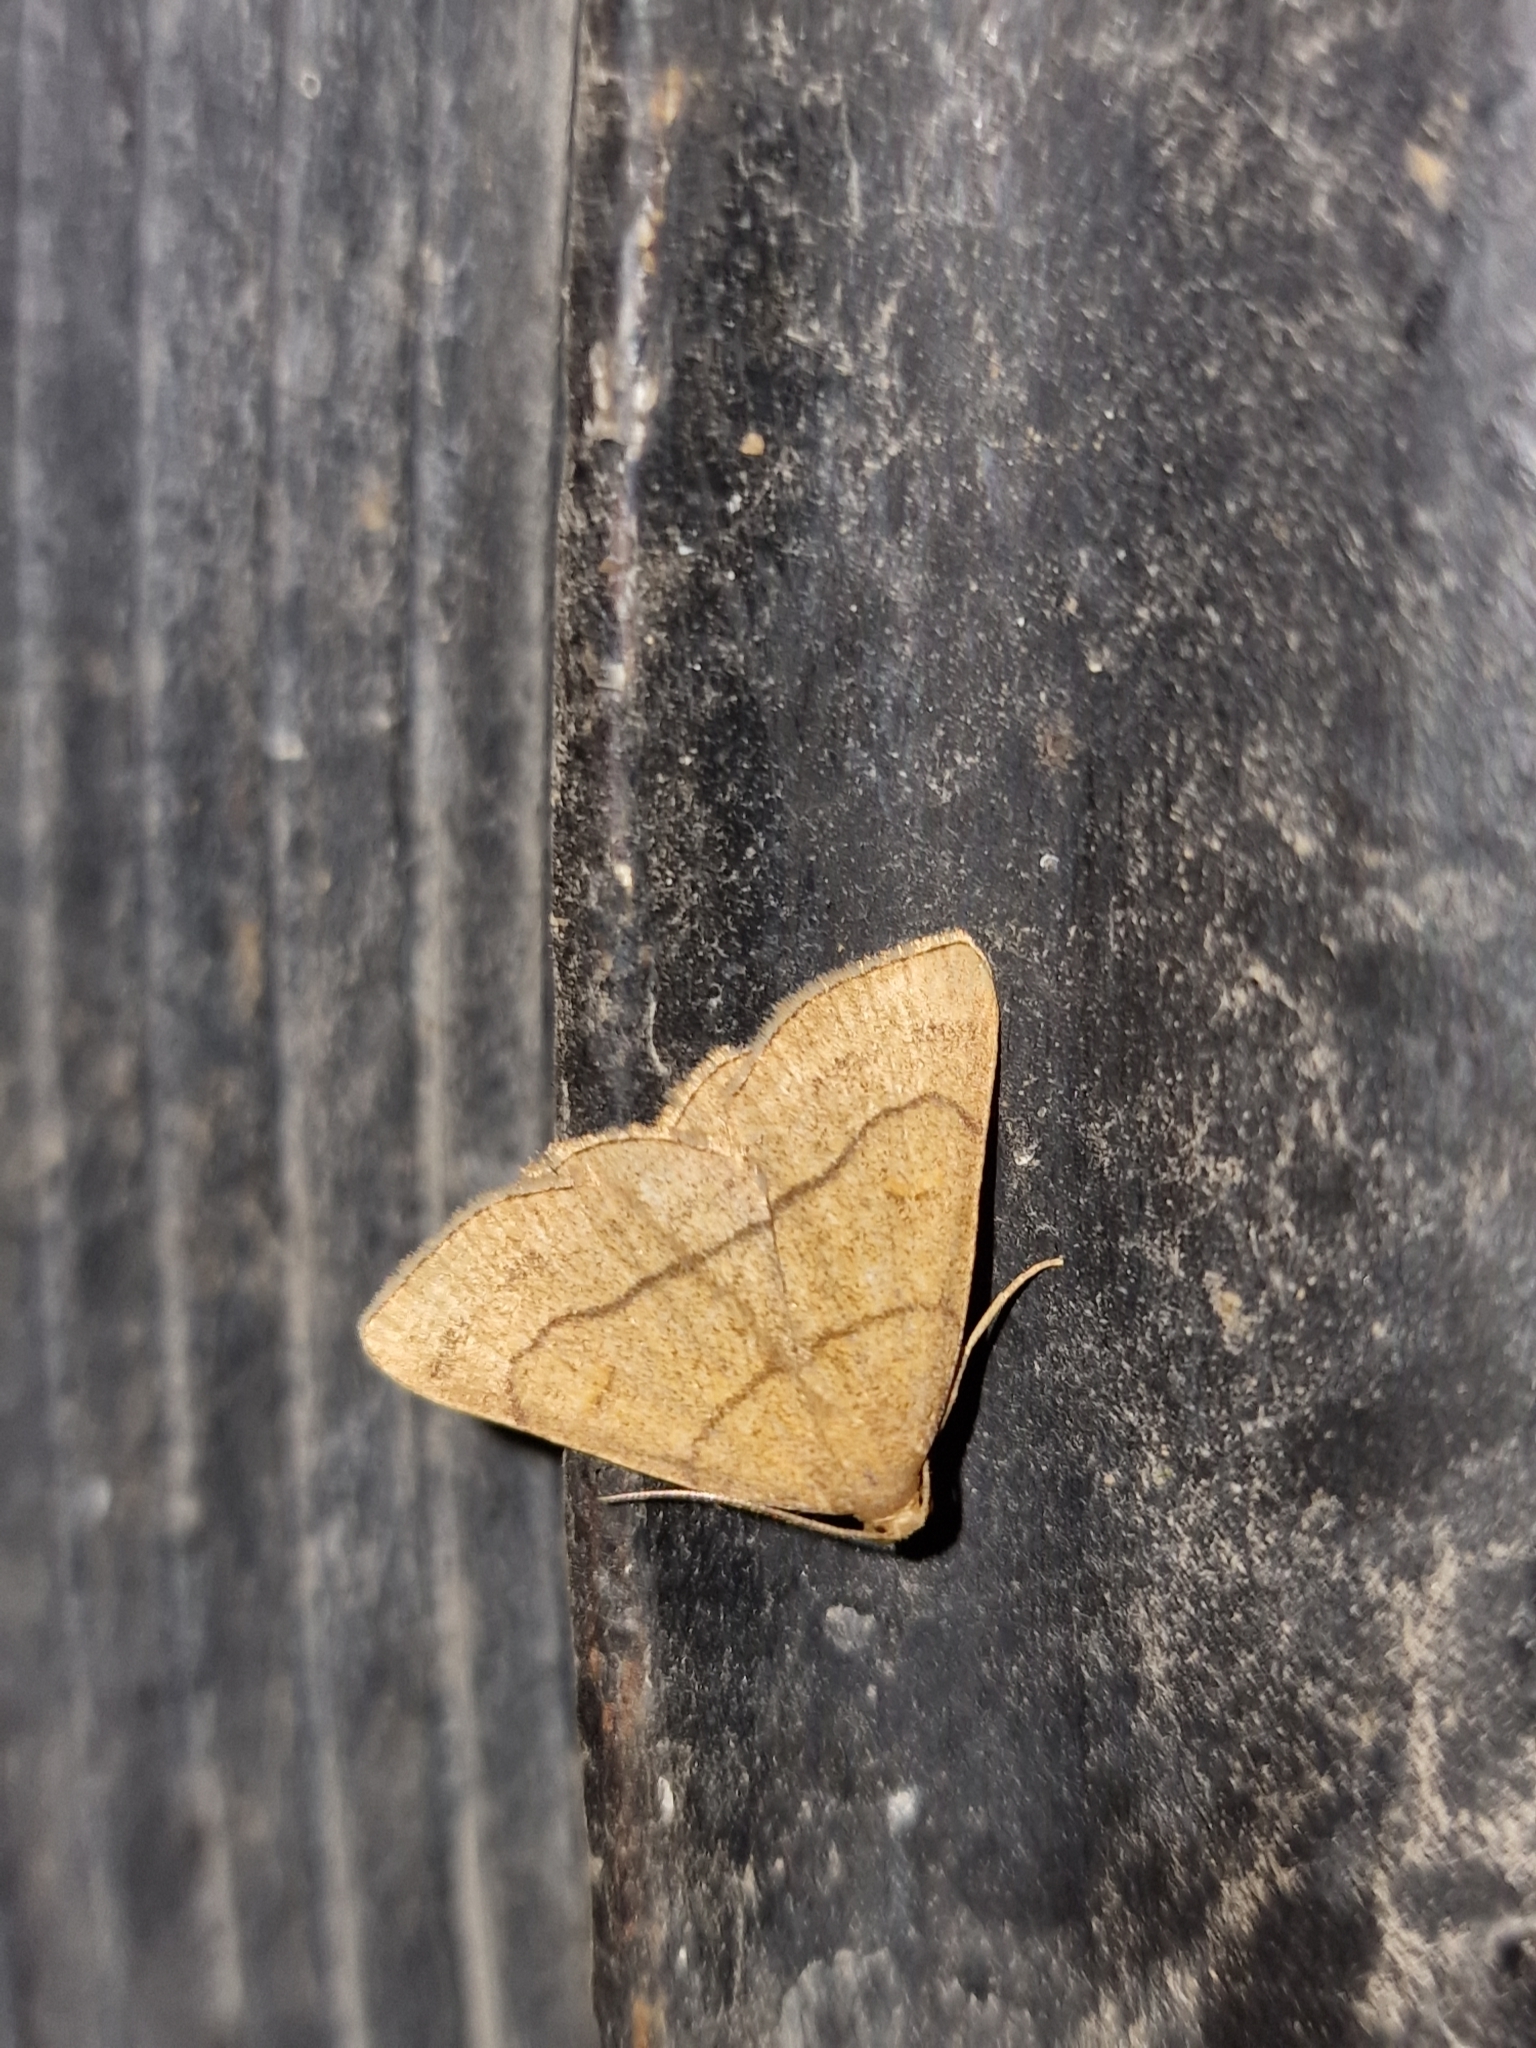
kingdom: Animalia
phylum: Arthropoda
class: Insecta
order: Lepidoptera
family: Erebidae
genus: Paracolax
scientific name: Paracolax tristalis
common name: Clay fan-foot
